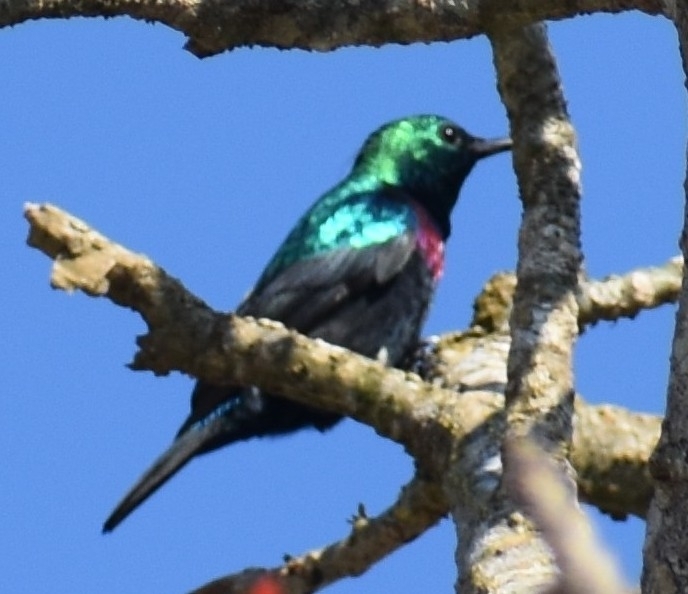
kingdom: Animalia
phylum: Chordata
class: Aves
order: Passeriformes
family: Nectariniidae
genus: Cinnyris
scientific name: Cinnyris bifasciatus
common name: Purple-banded sunbird
